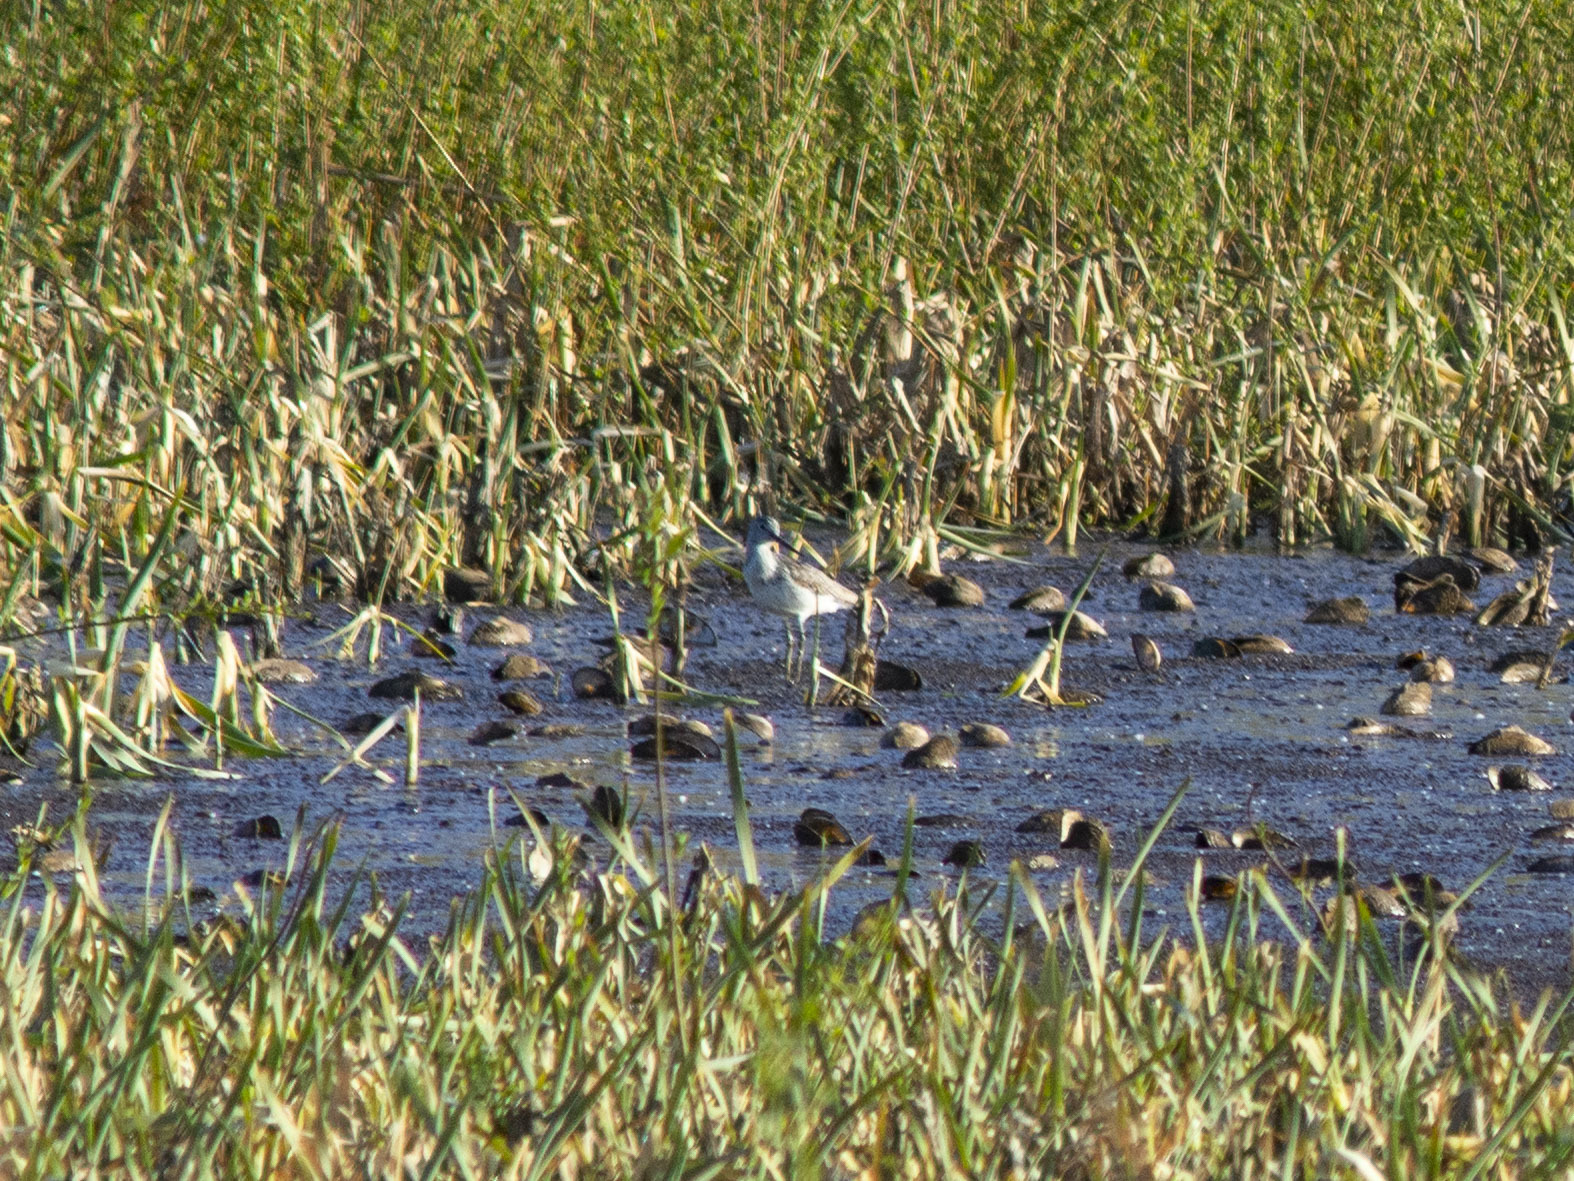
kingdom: Animalia
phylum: Chordata
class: Aves
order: Charadriiformes
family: Scolopacidae
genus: Tringa
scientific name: Tringa nebularia
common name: Common greenshank
